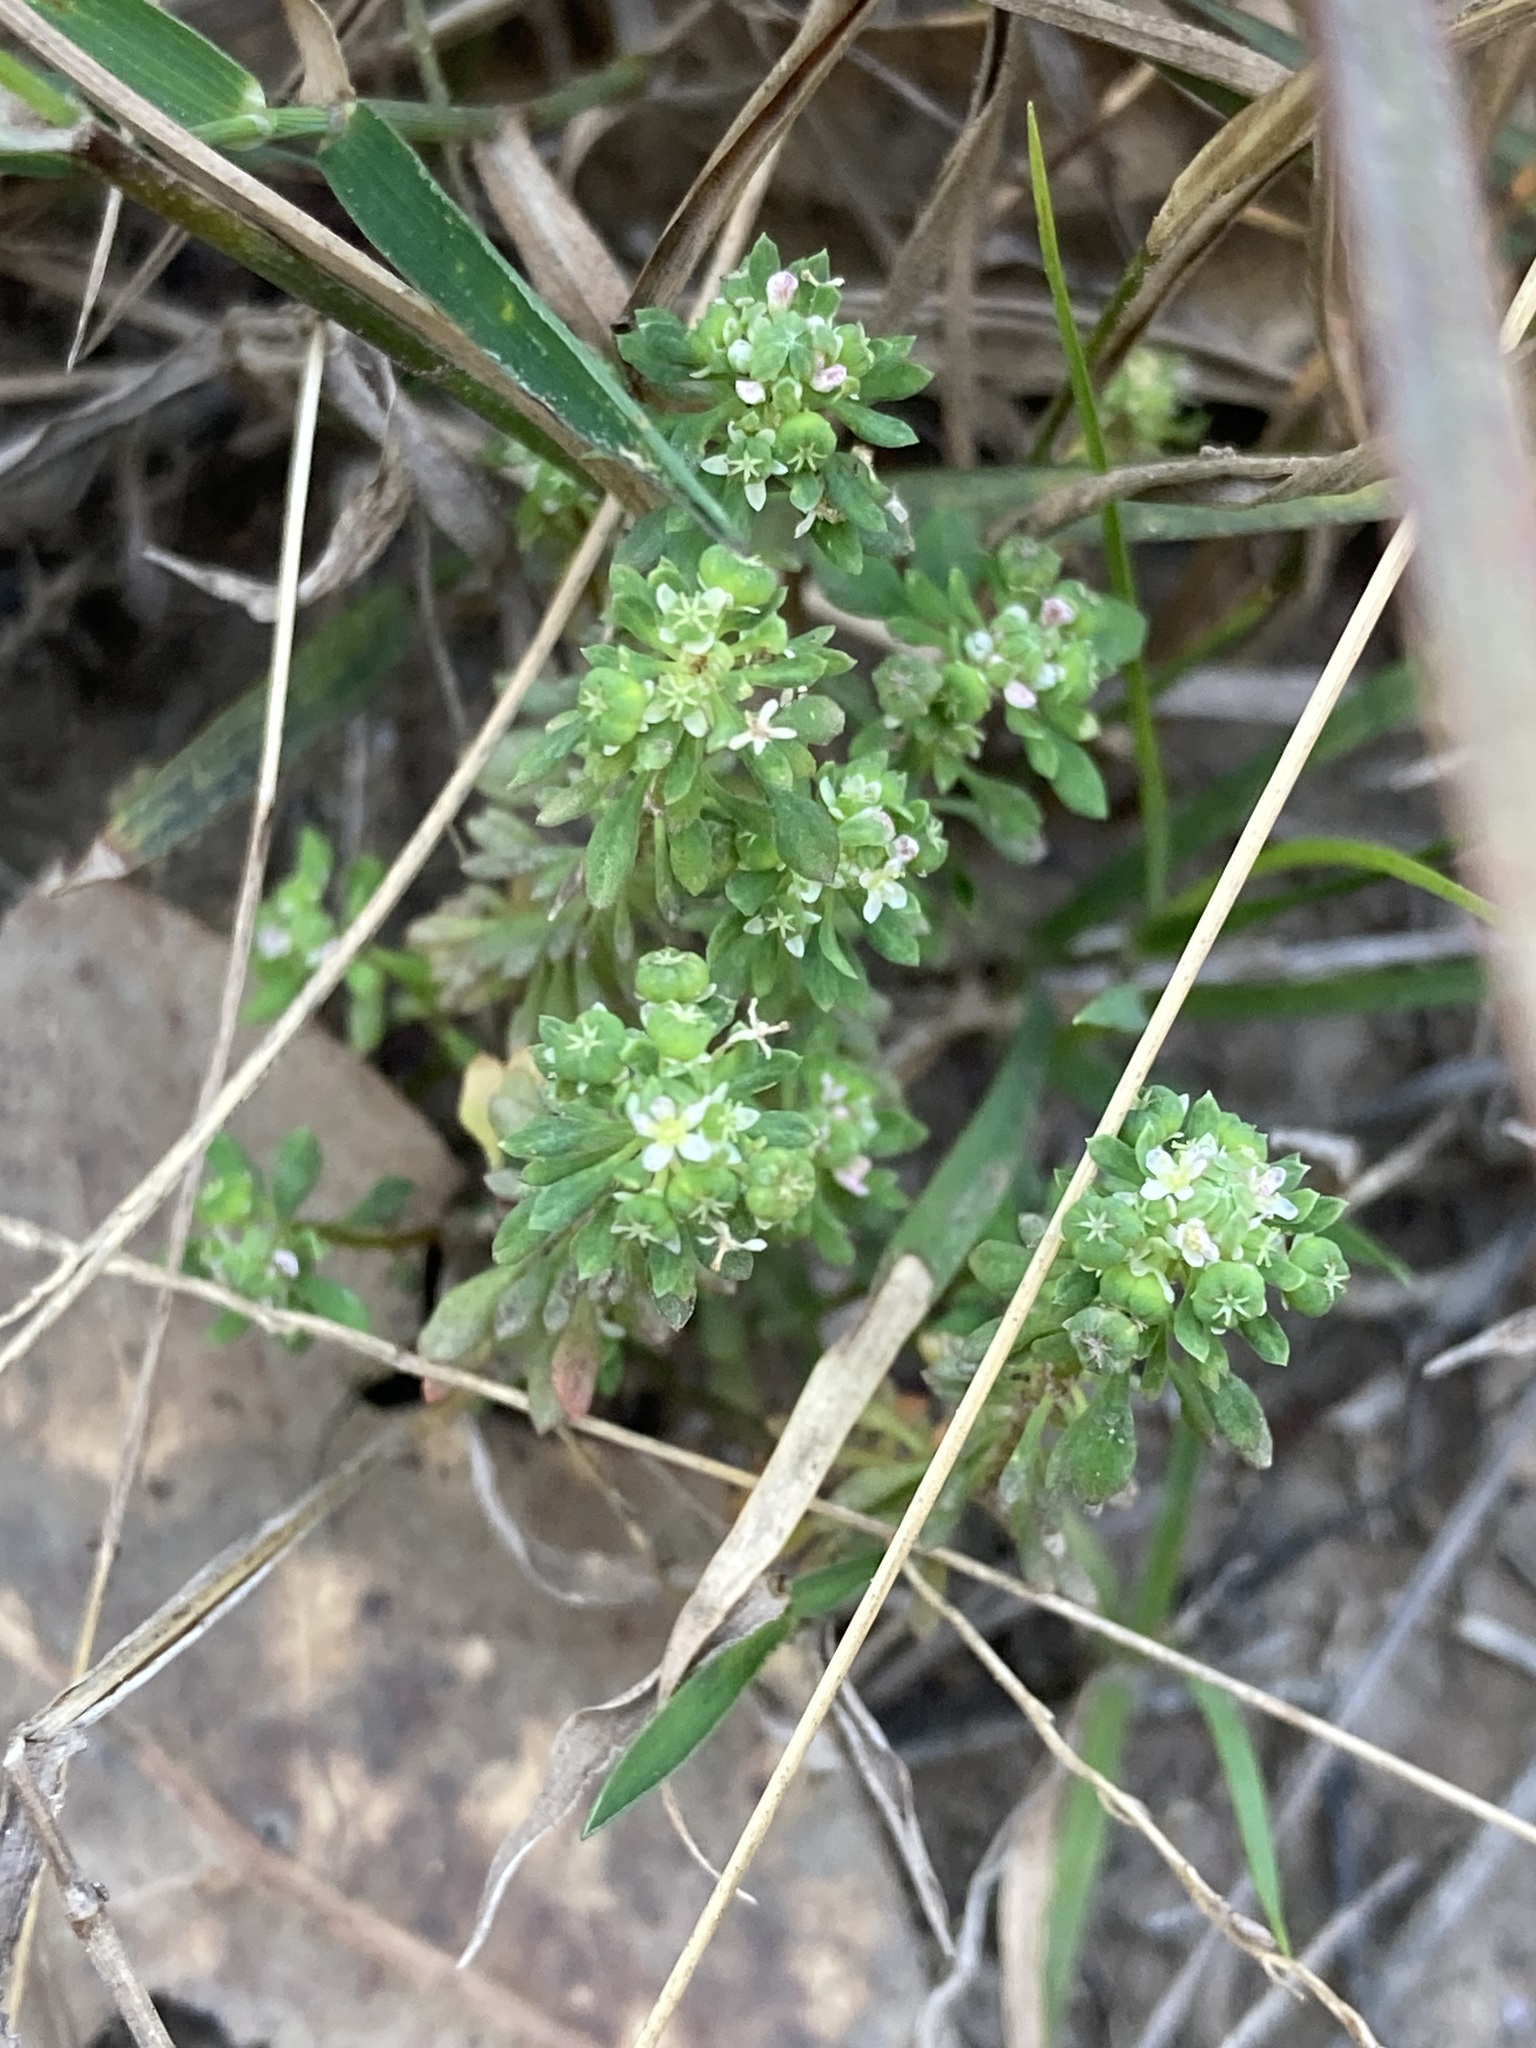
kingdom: Plantae
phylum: Tracheophyta
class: Magnoliopsida
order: Malpighiales
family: Phyllanthaceae
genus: Poranthera
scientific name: Poranthera microphylla
